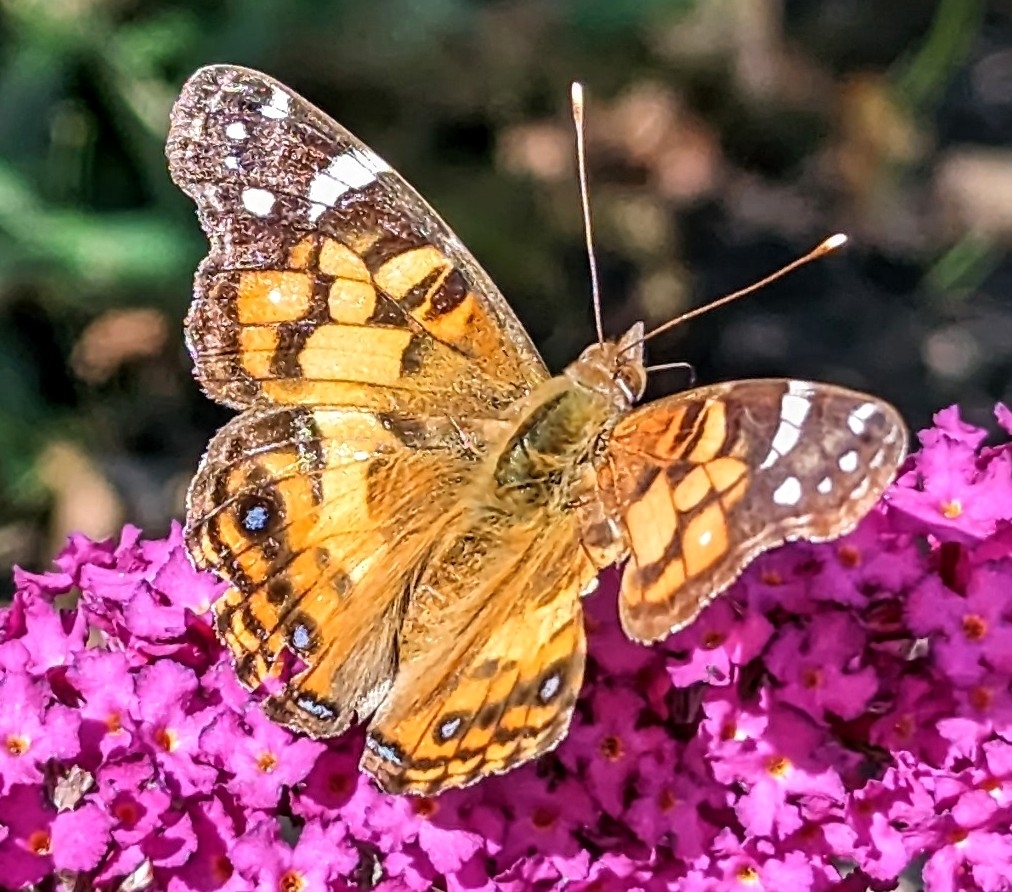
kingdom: Animalia
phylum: Arthropoda
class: Insecta
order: Lepidoptera
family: Nymphalidae
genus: Vanessa
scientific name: Vanessa virginiensis
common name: American lady
